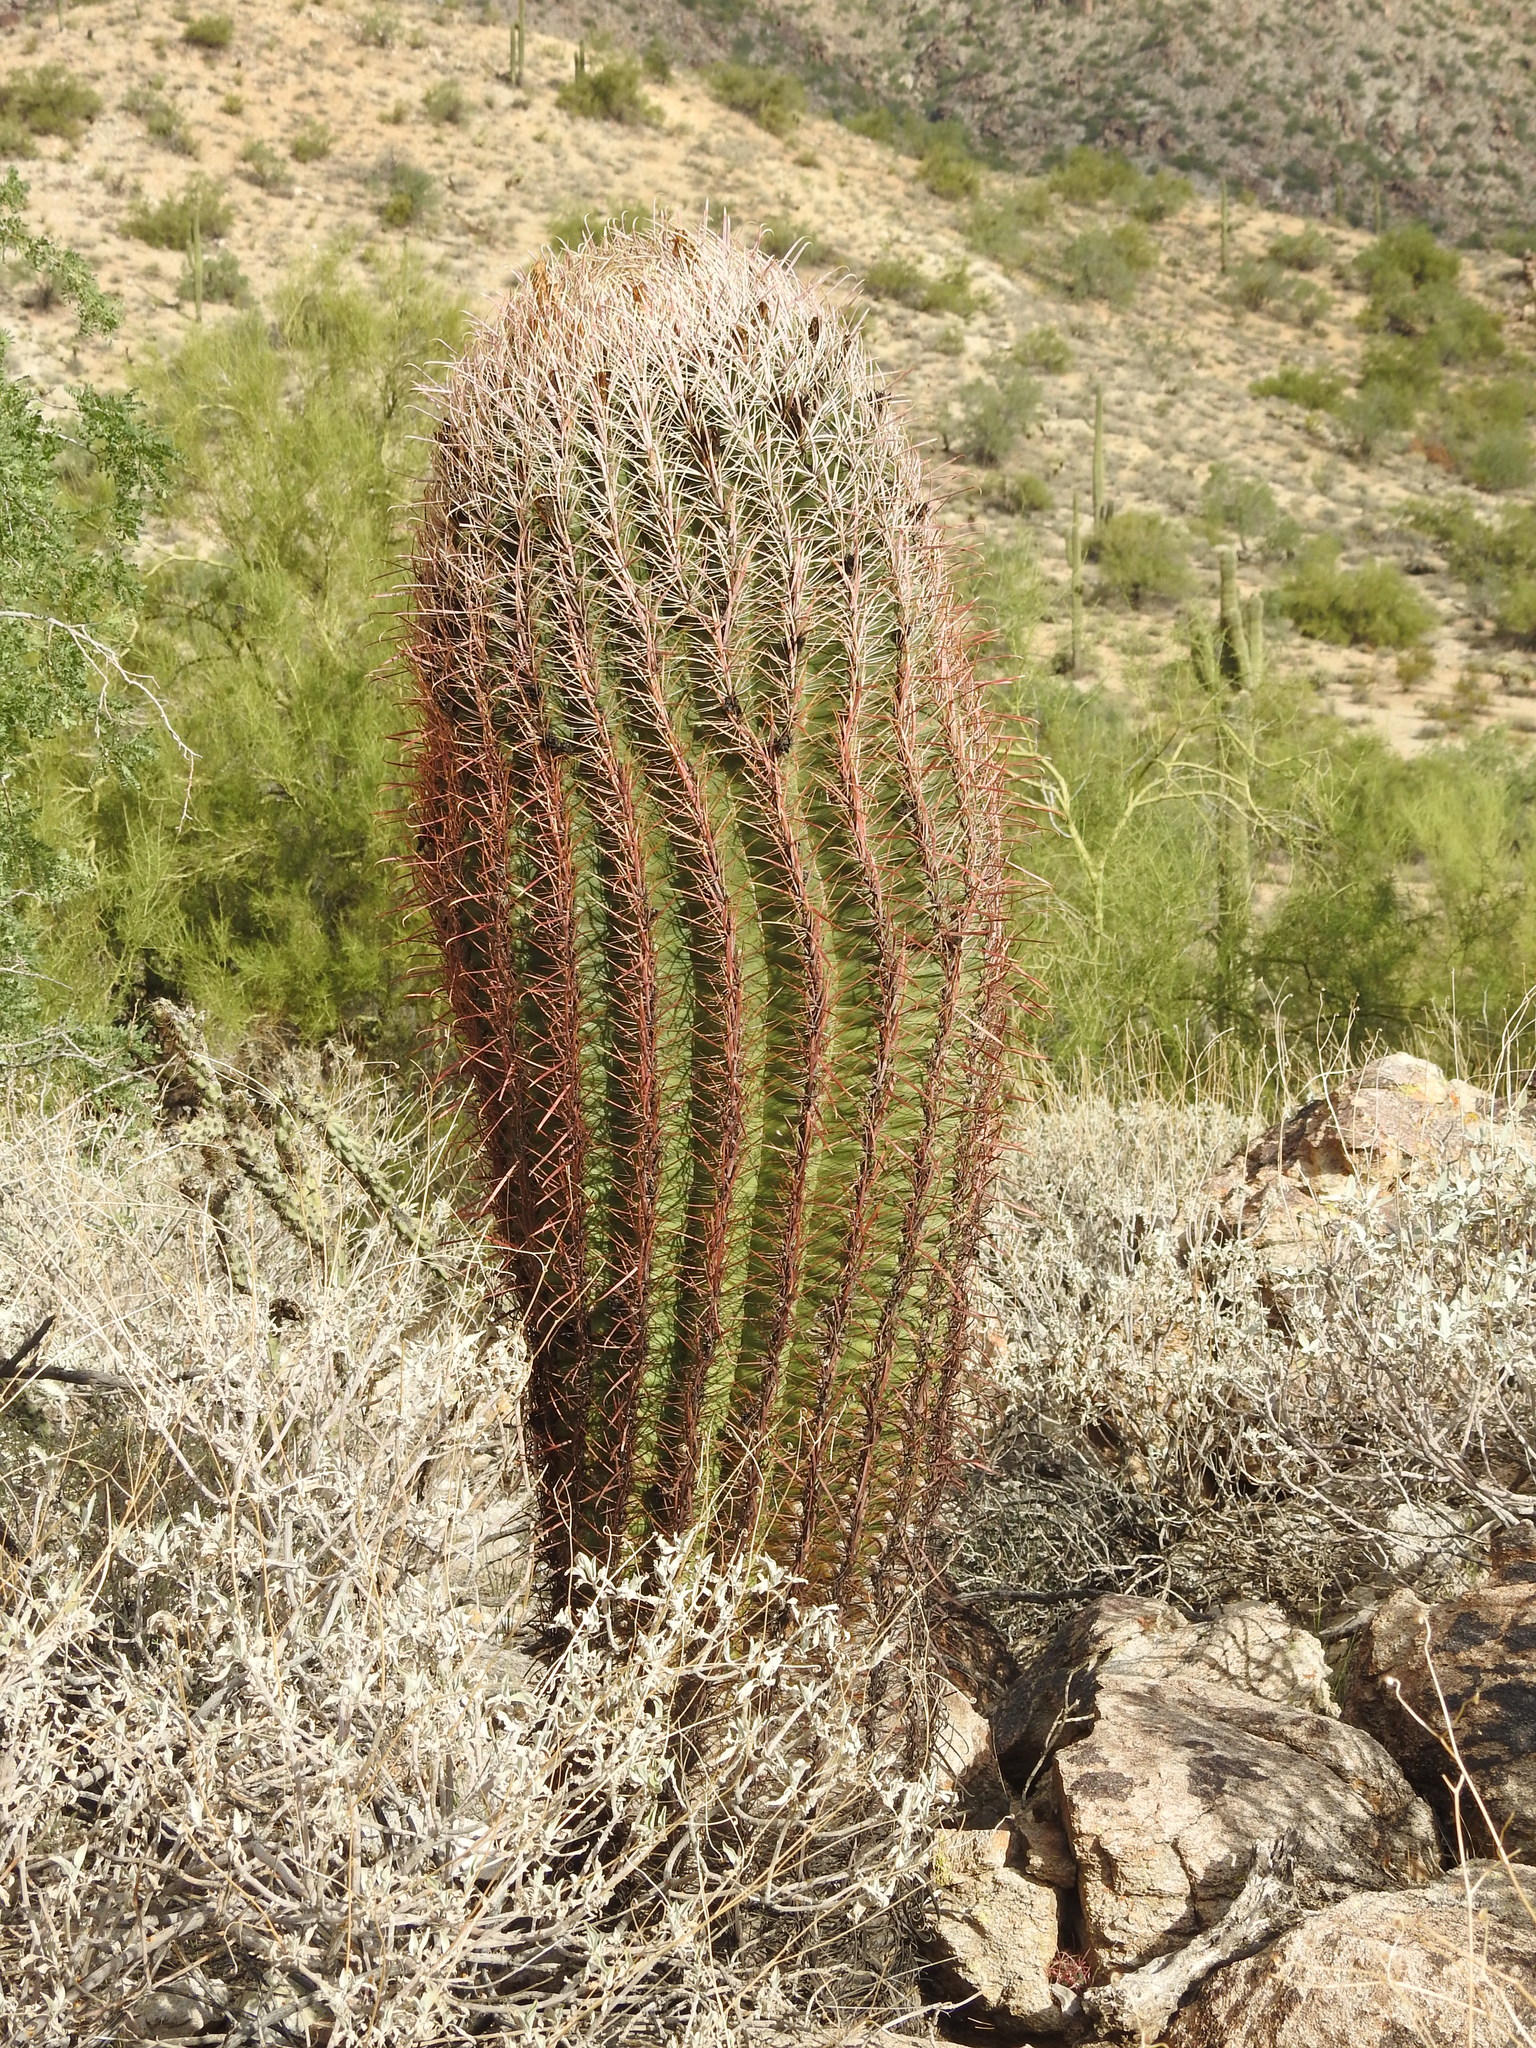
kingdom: Plantae
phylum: Tracheophyta
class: Magnoliopsida
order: Caryophyllales
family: Cactaceae
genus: Ferocactus
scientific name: Ferocactus cylindraceus
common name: California barrel cactus
